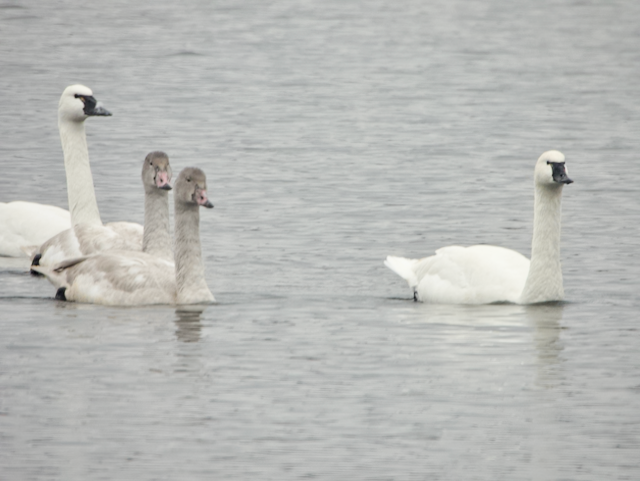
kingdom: Animalia
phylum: Chordata
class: Aves
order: Anseriformes
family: Anatidae
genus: Cygnus
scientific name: Cygnus columbianus
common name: Tundra swan
